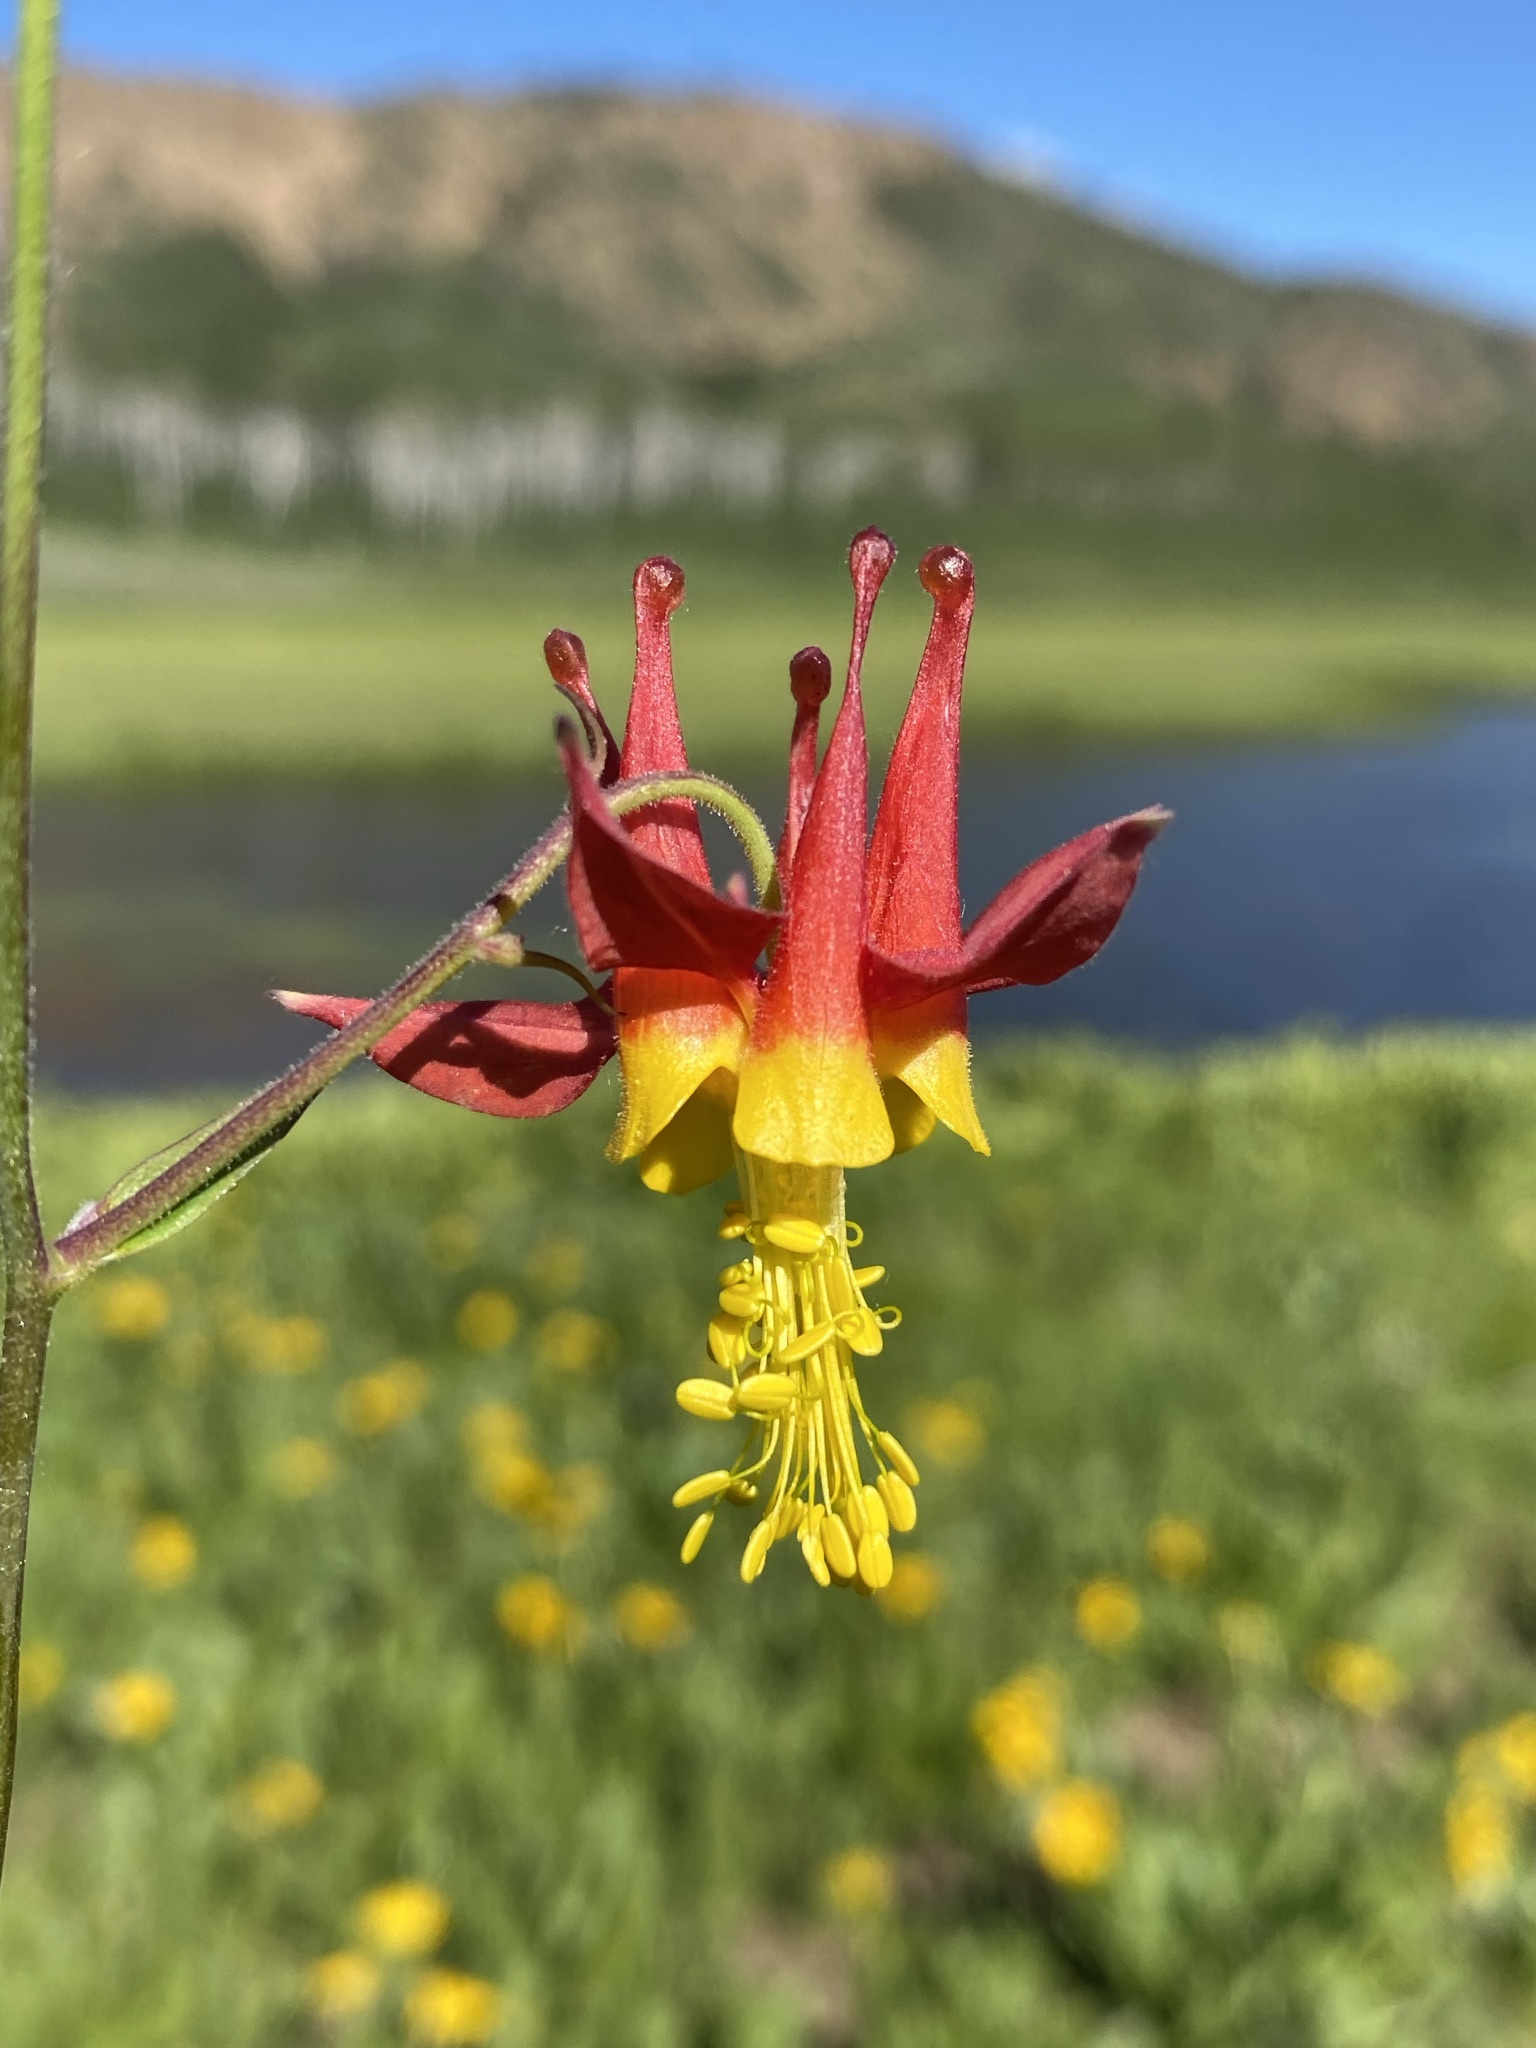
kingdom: Plantae
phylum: Tracheophyta
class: Magnoliopsida
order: Ranunculales
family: Ranunculaceae
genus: Aquilegia
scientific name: Aquilegia formosa
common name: Sitka columbine
